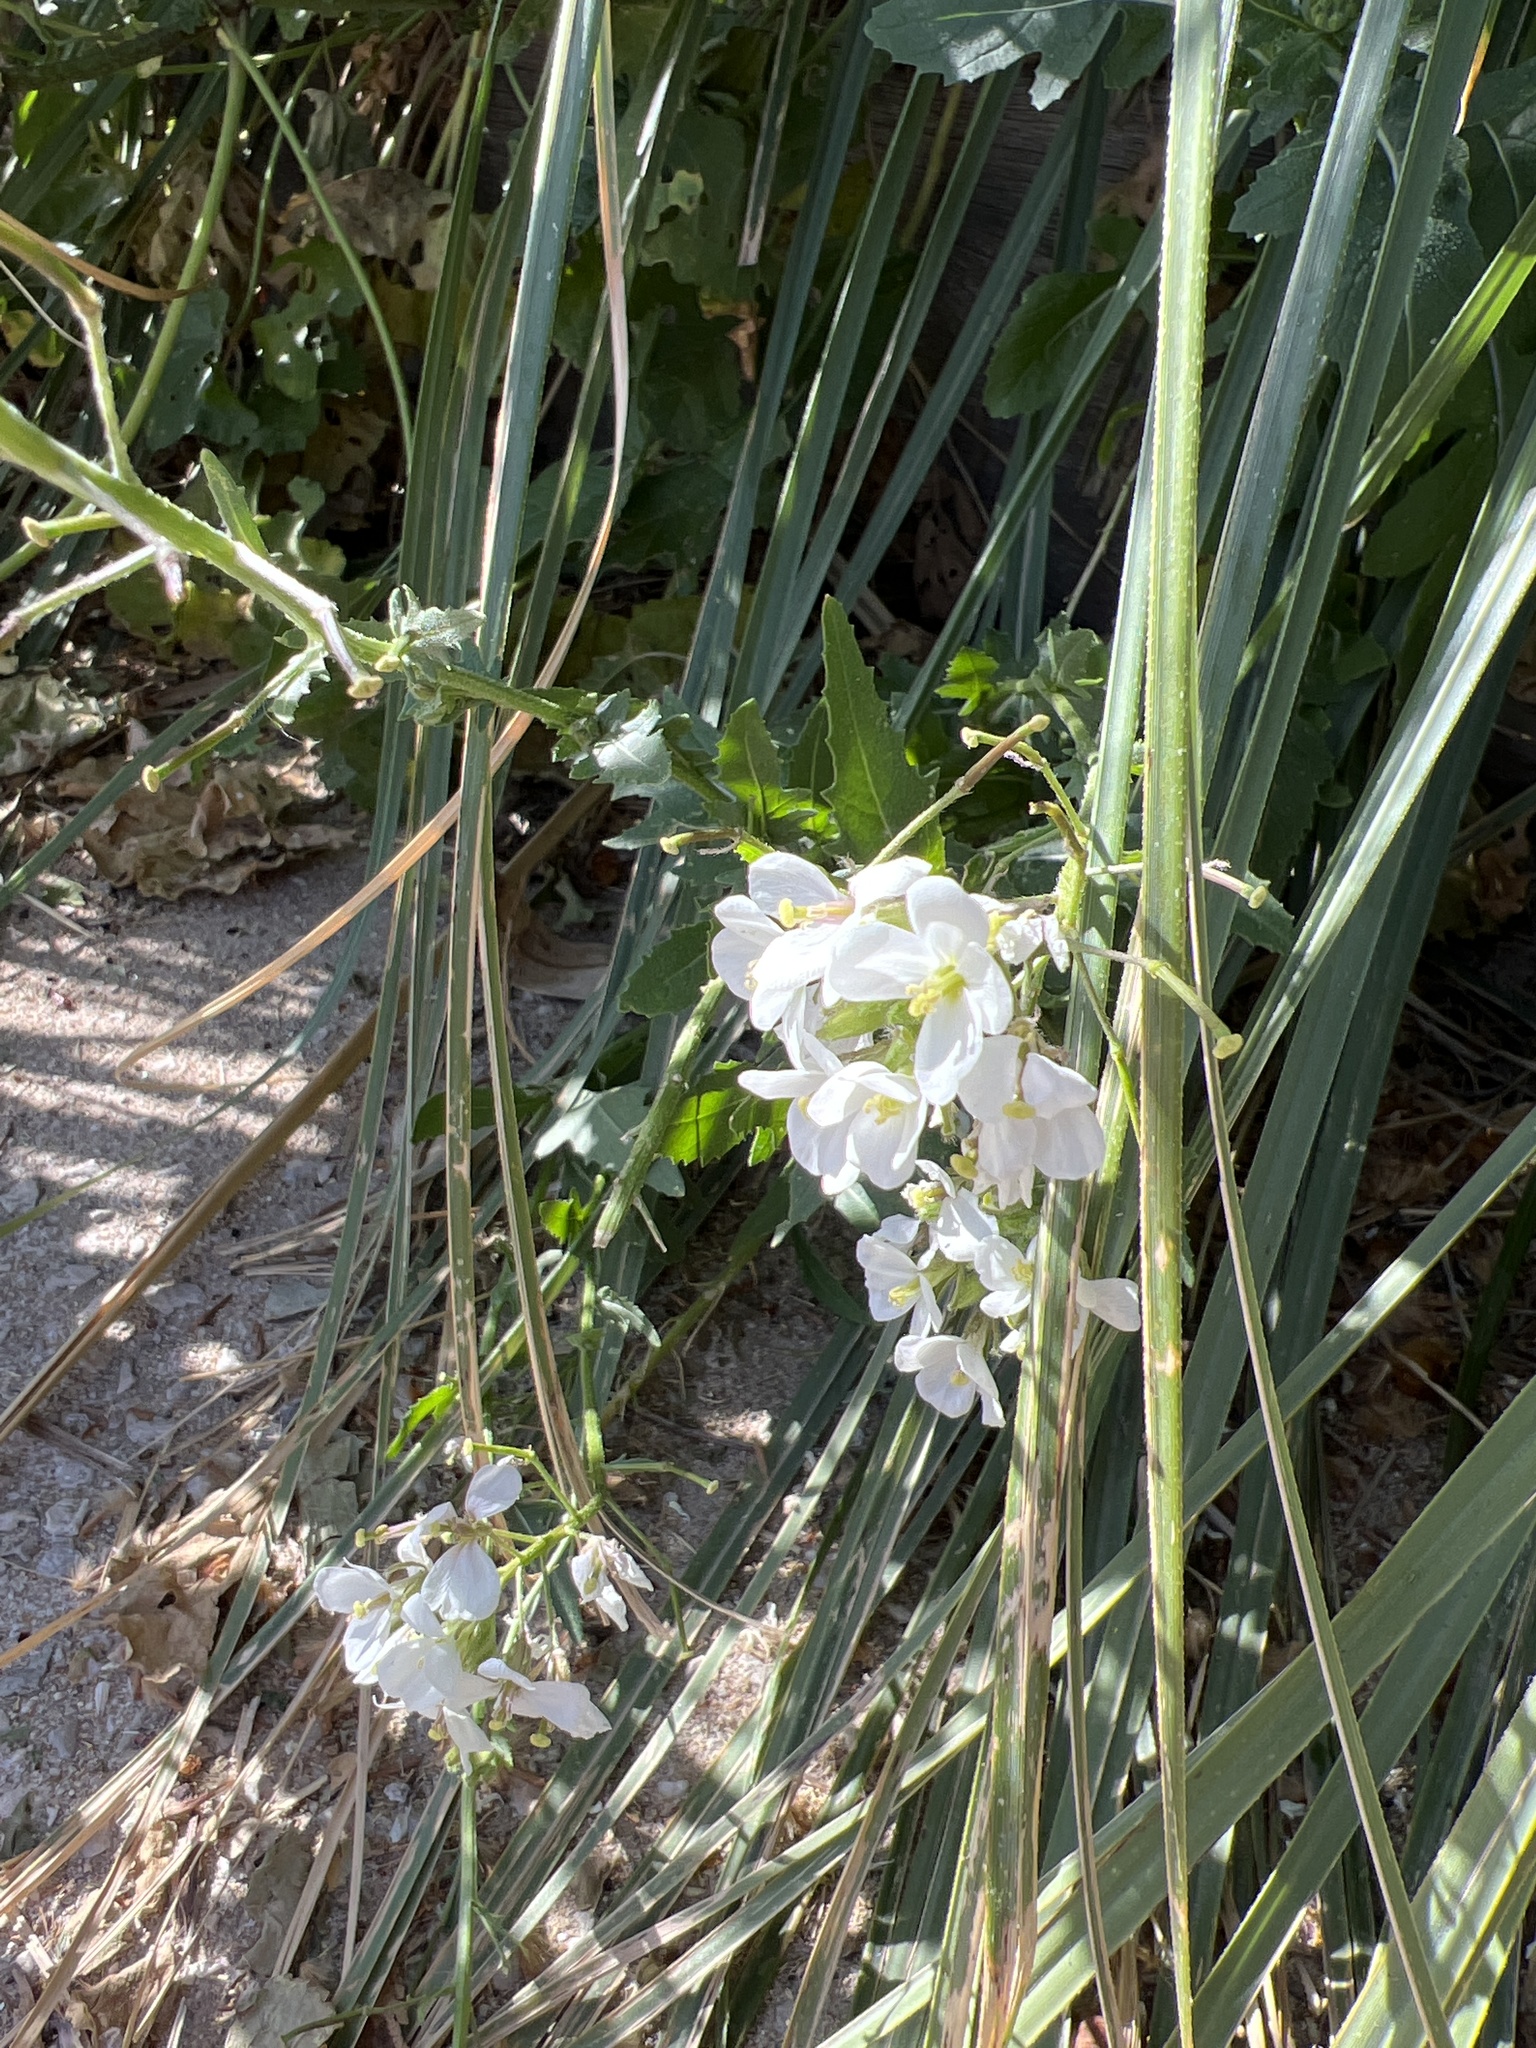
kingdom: Plantae
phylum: Tracheophyta
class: Magnoliopsida
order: Brassicales
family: Brassicaceae
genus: Diplotaxis
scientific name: Diplotaxis erucoides
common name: White rocket
